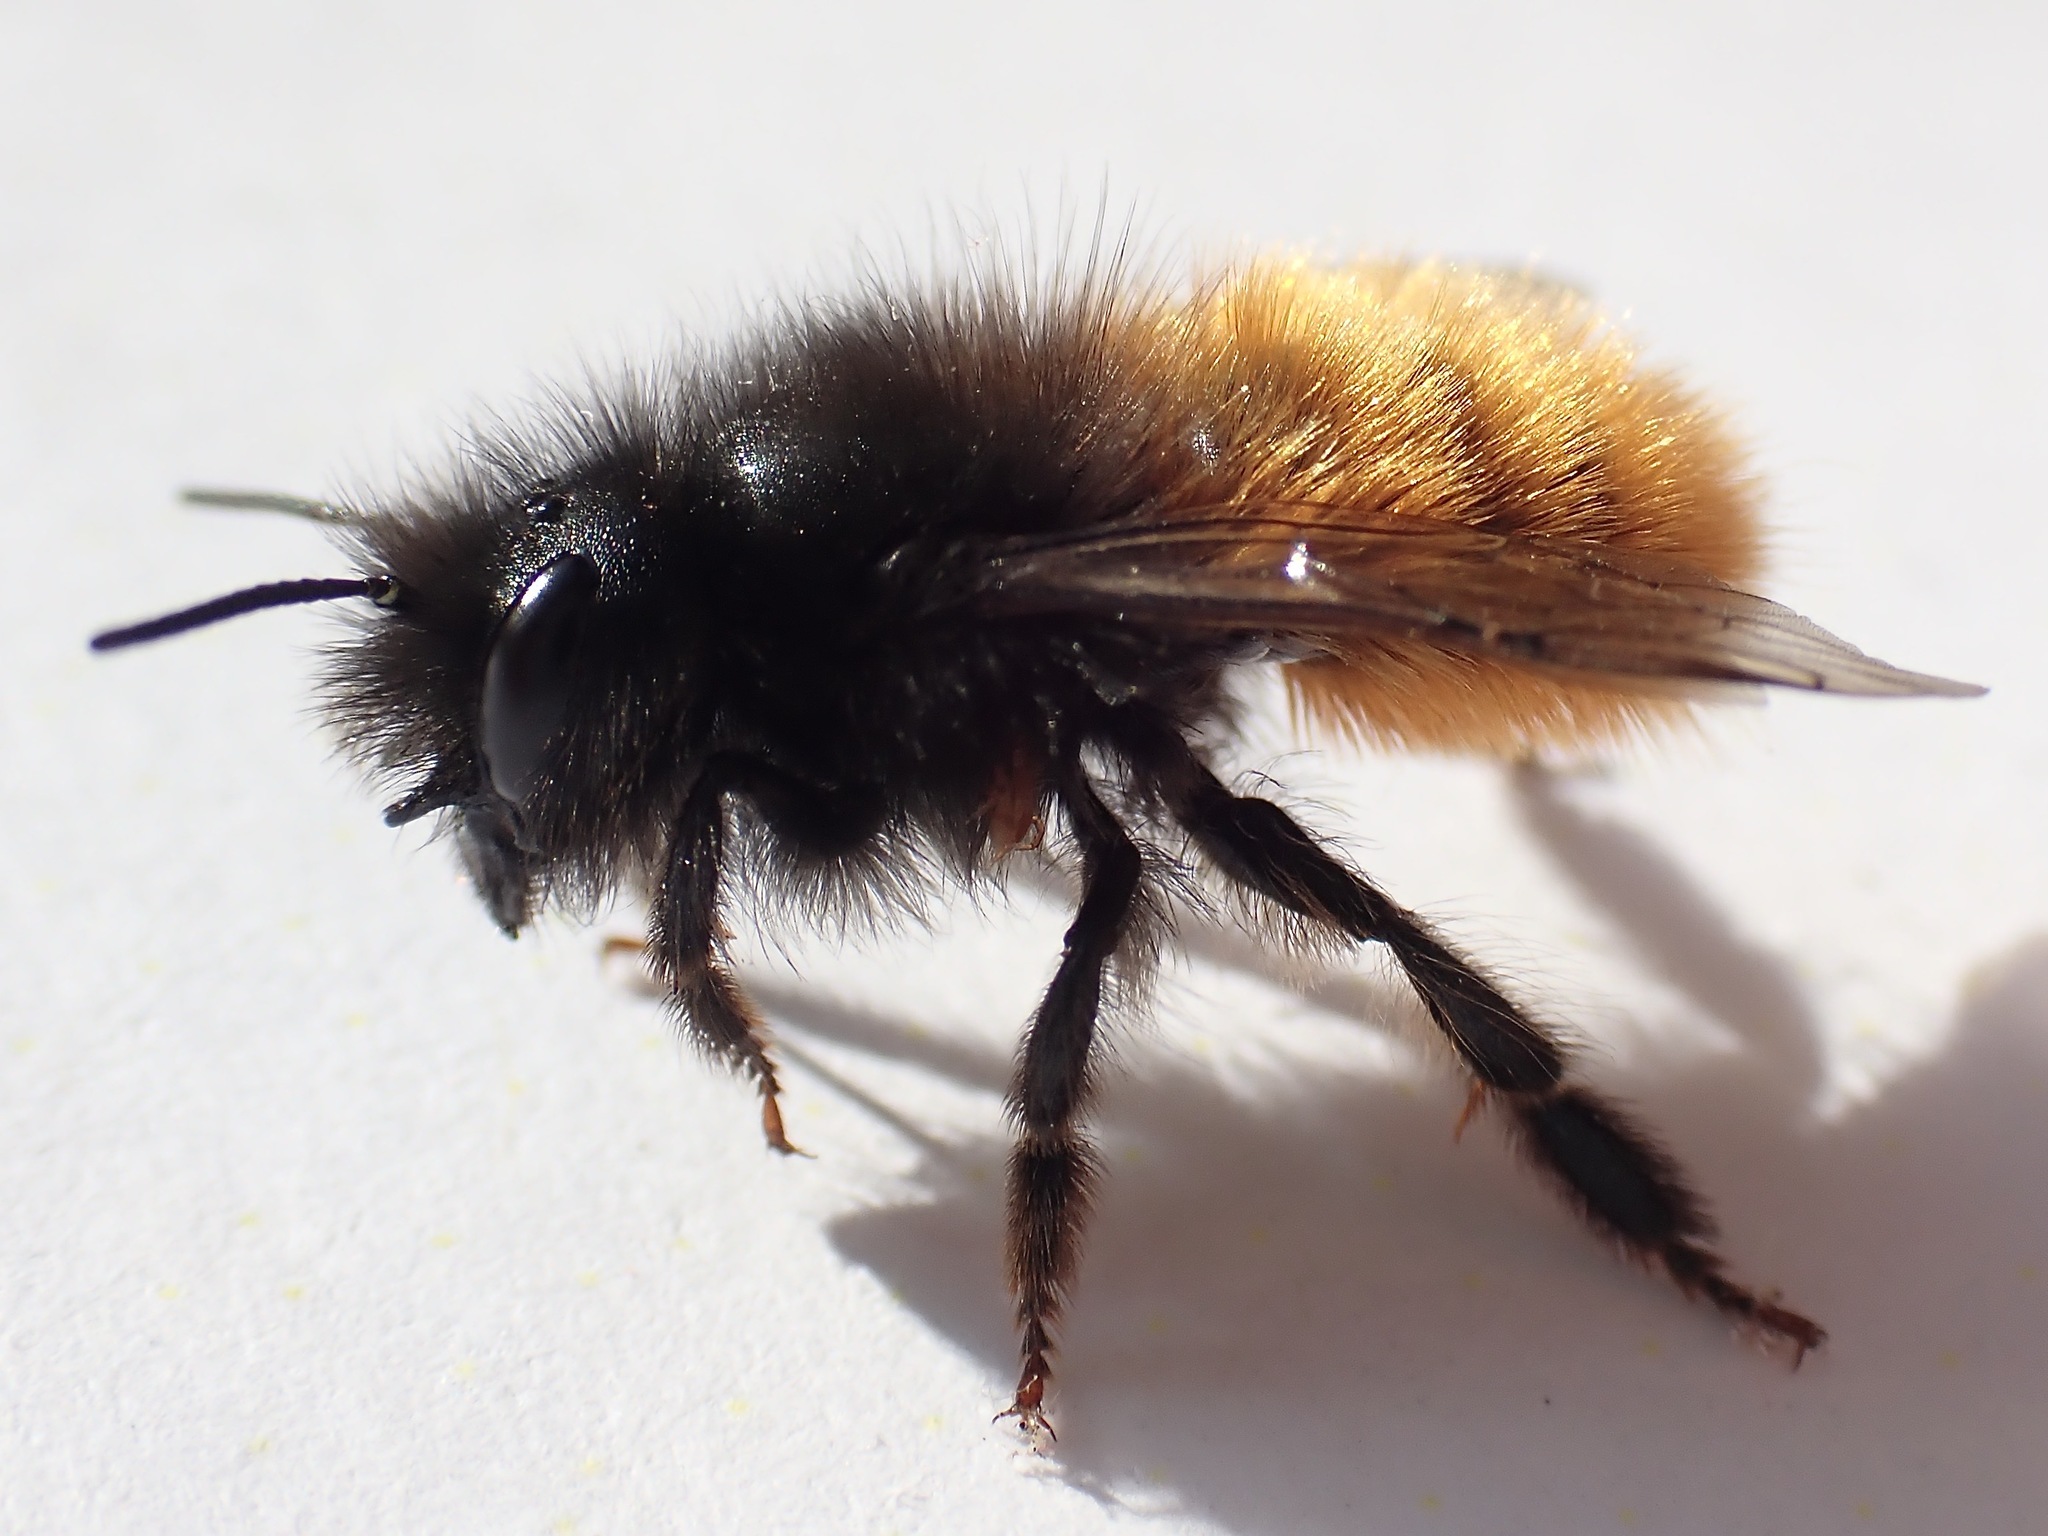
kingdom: Animalia
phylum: Arthropoda
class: Insecta
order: Hymenoptera
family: Megachilidae
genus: Osmia
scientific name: Osmia cornuta
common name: Mason bee
